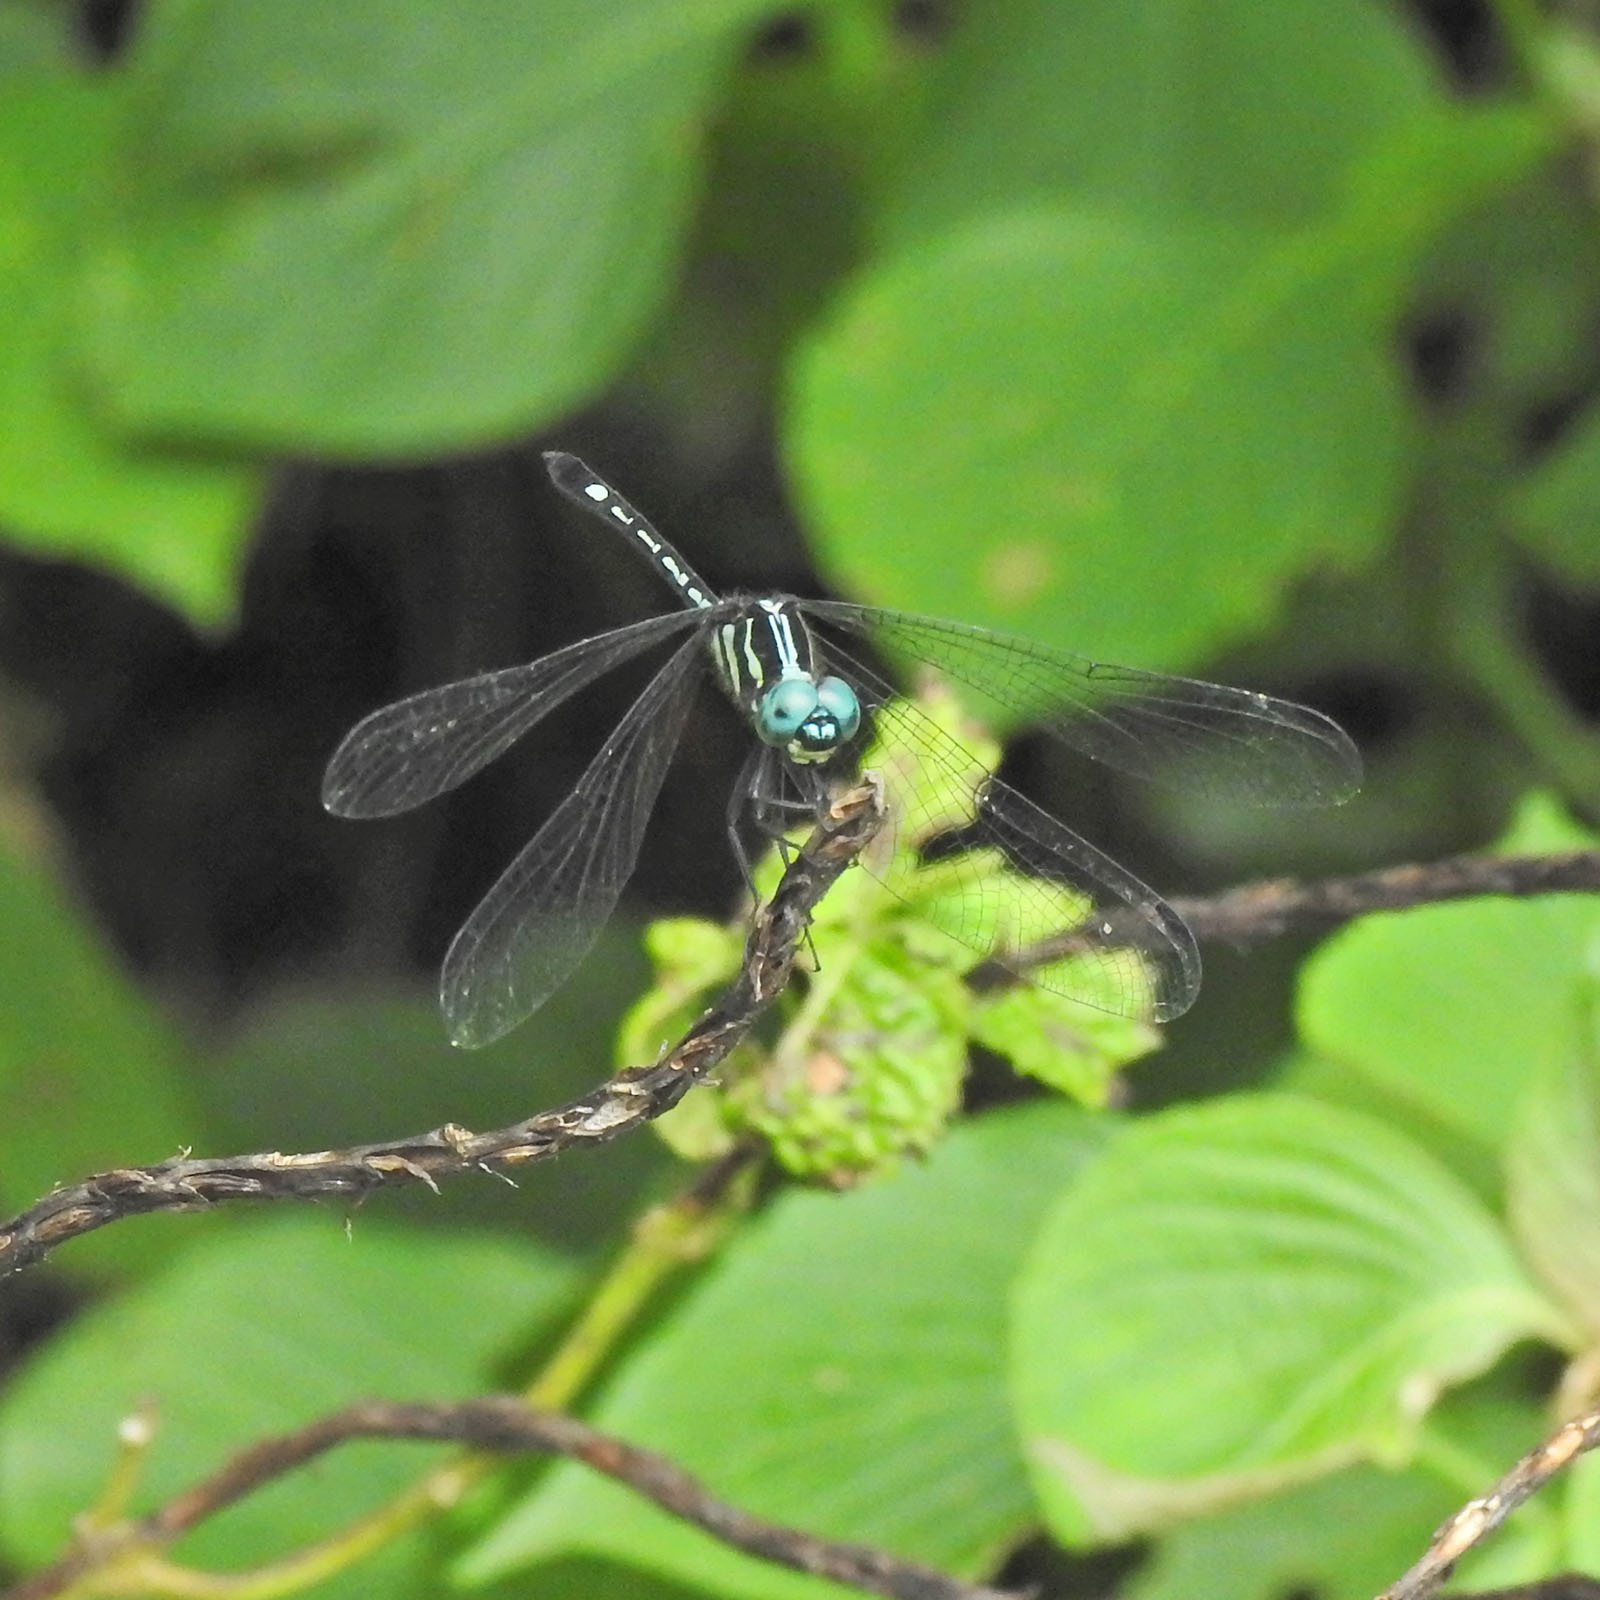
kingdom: Animalia
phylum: Arthropoda
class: Insecta
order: Odonata
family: Libellulidae
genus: Hylaeothemis
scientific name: Hylaeothemis apicalis
